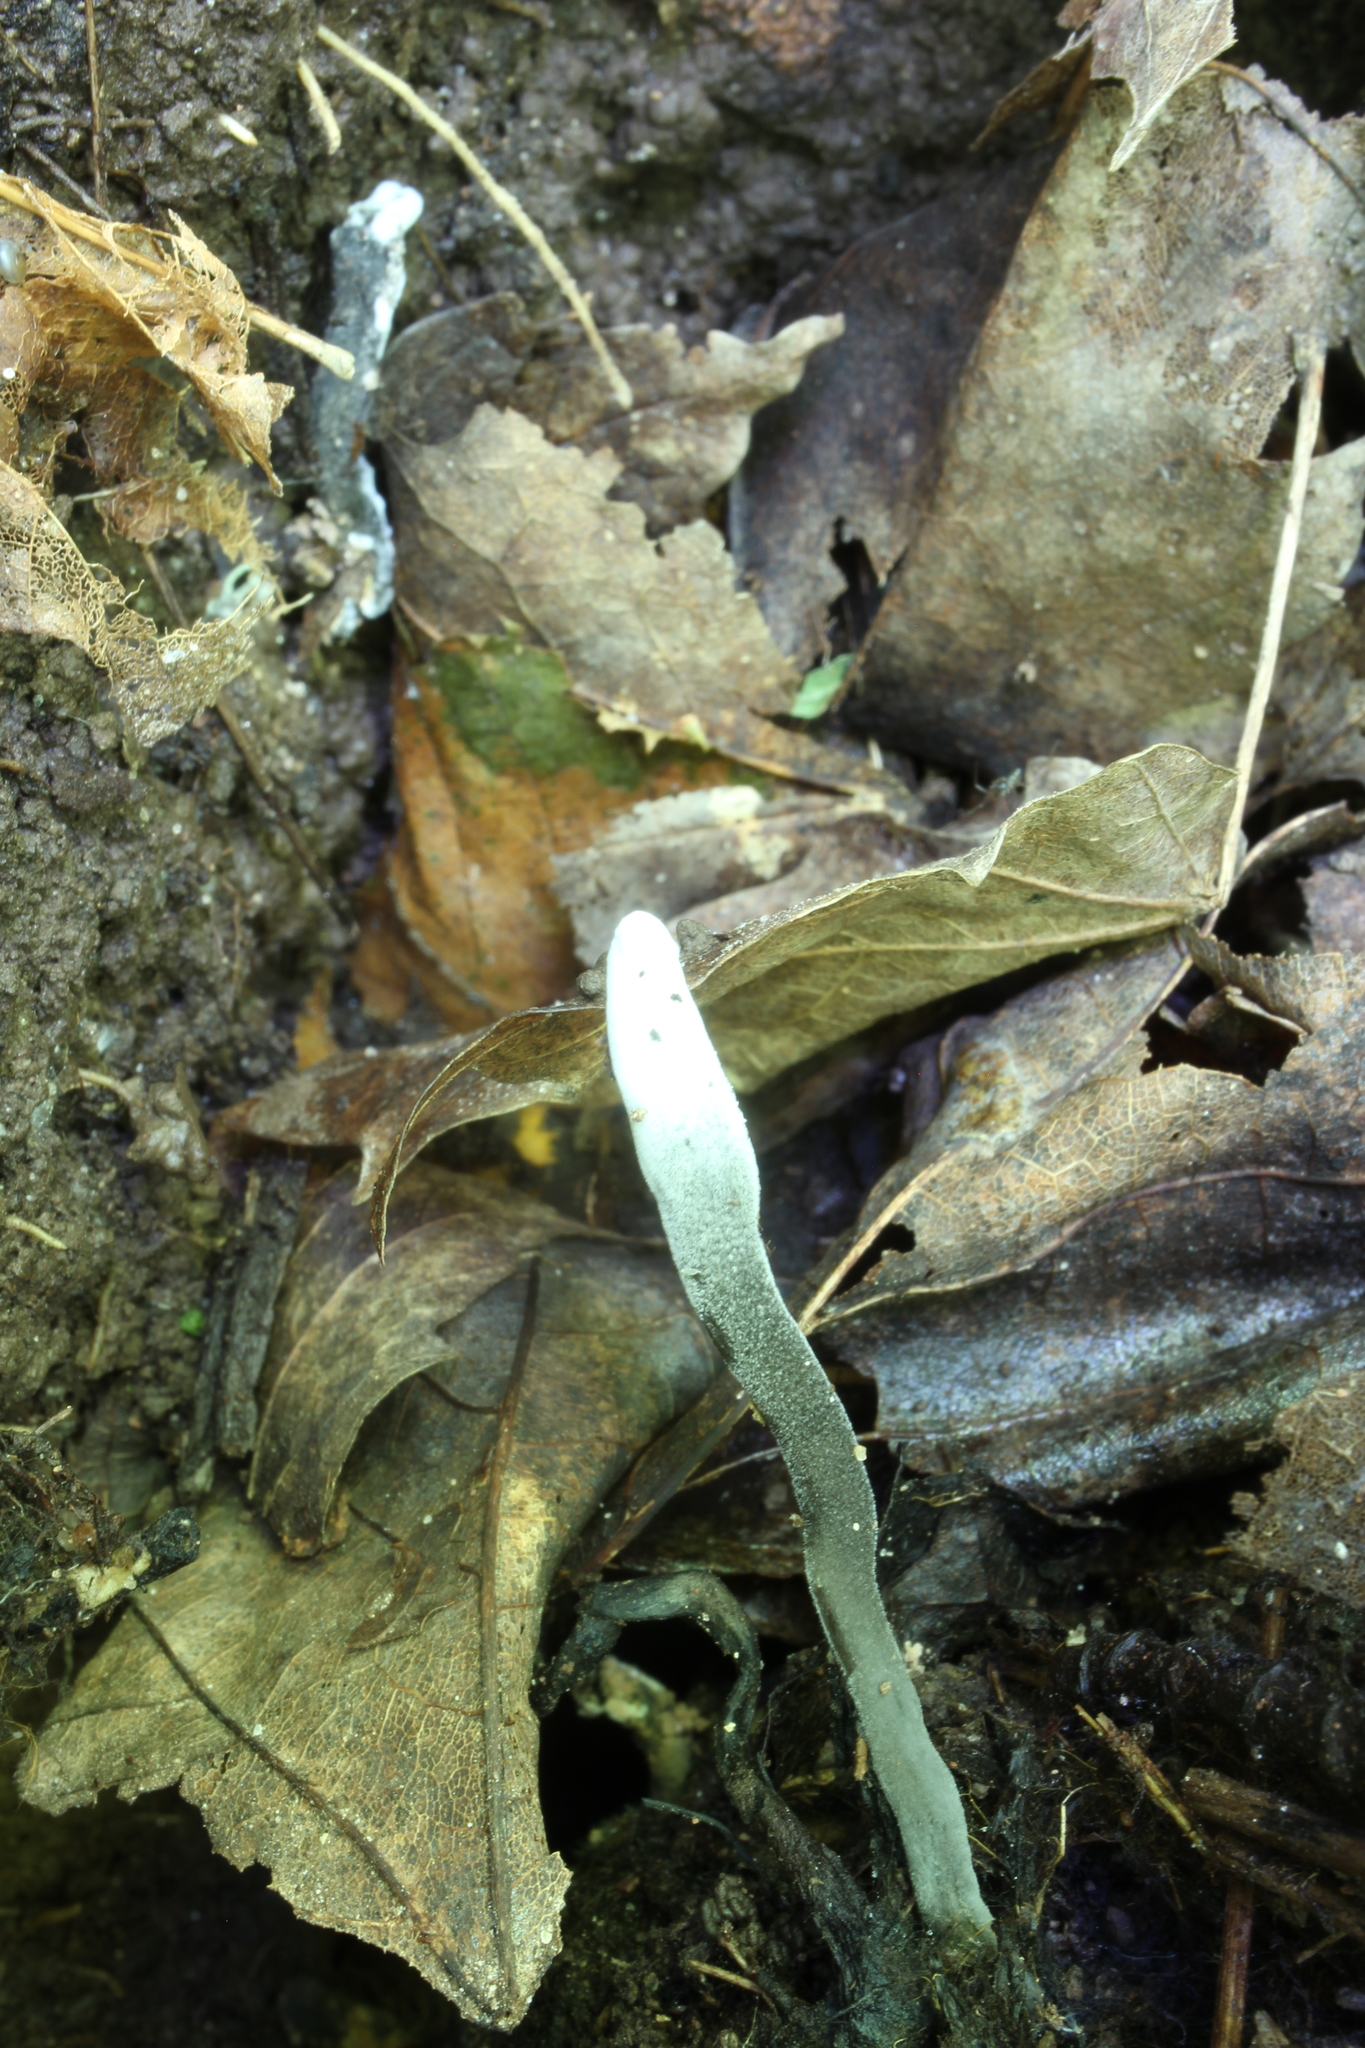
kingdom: Fungi
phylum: Ascomycota
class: Sordariomycetes
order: Hypocreales
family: Hypocreaceae
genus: Hypomyces
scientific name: Hypomyces papulasporae
